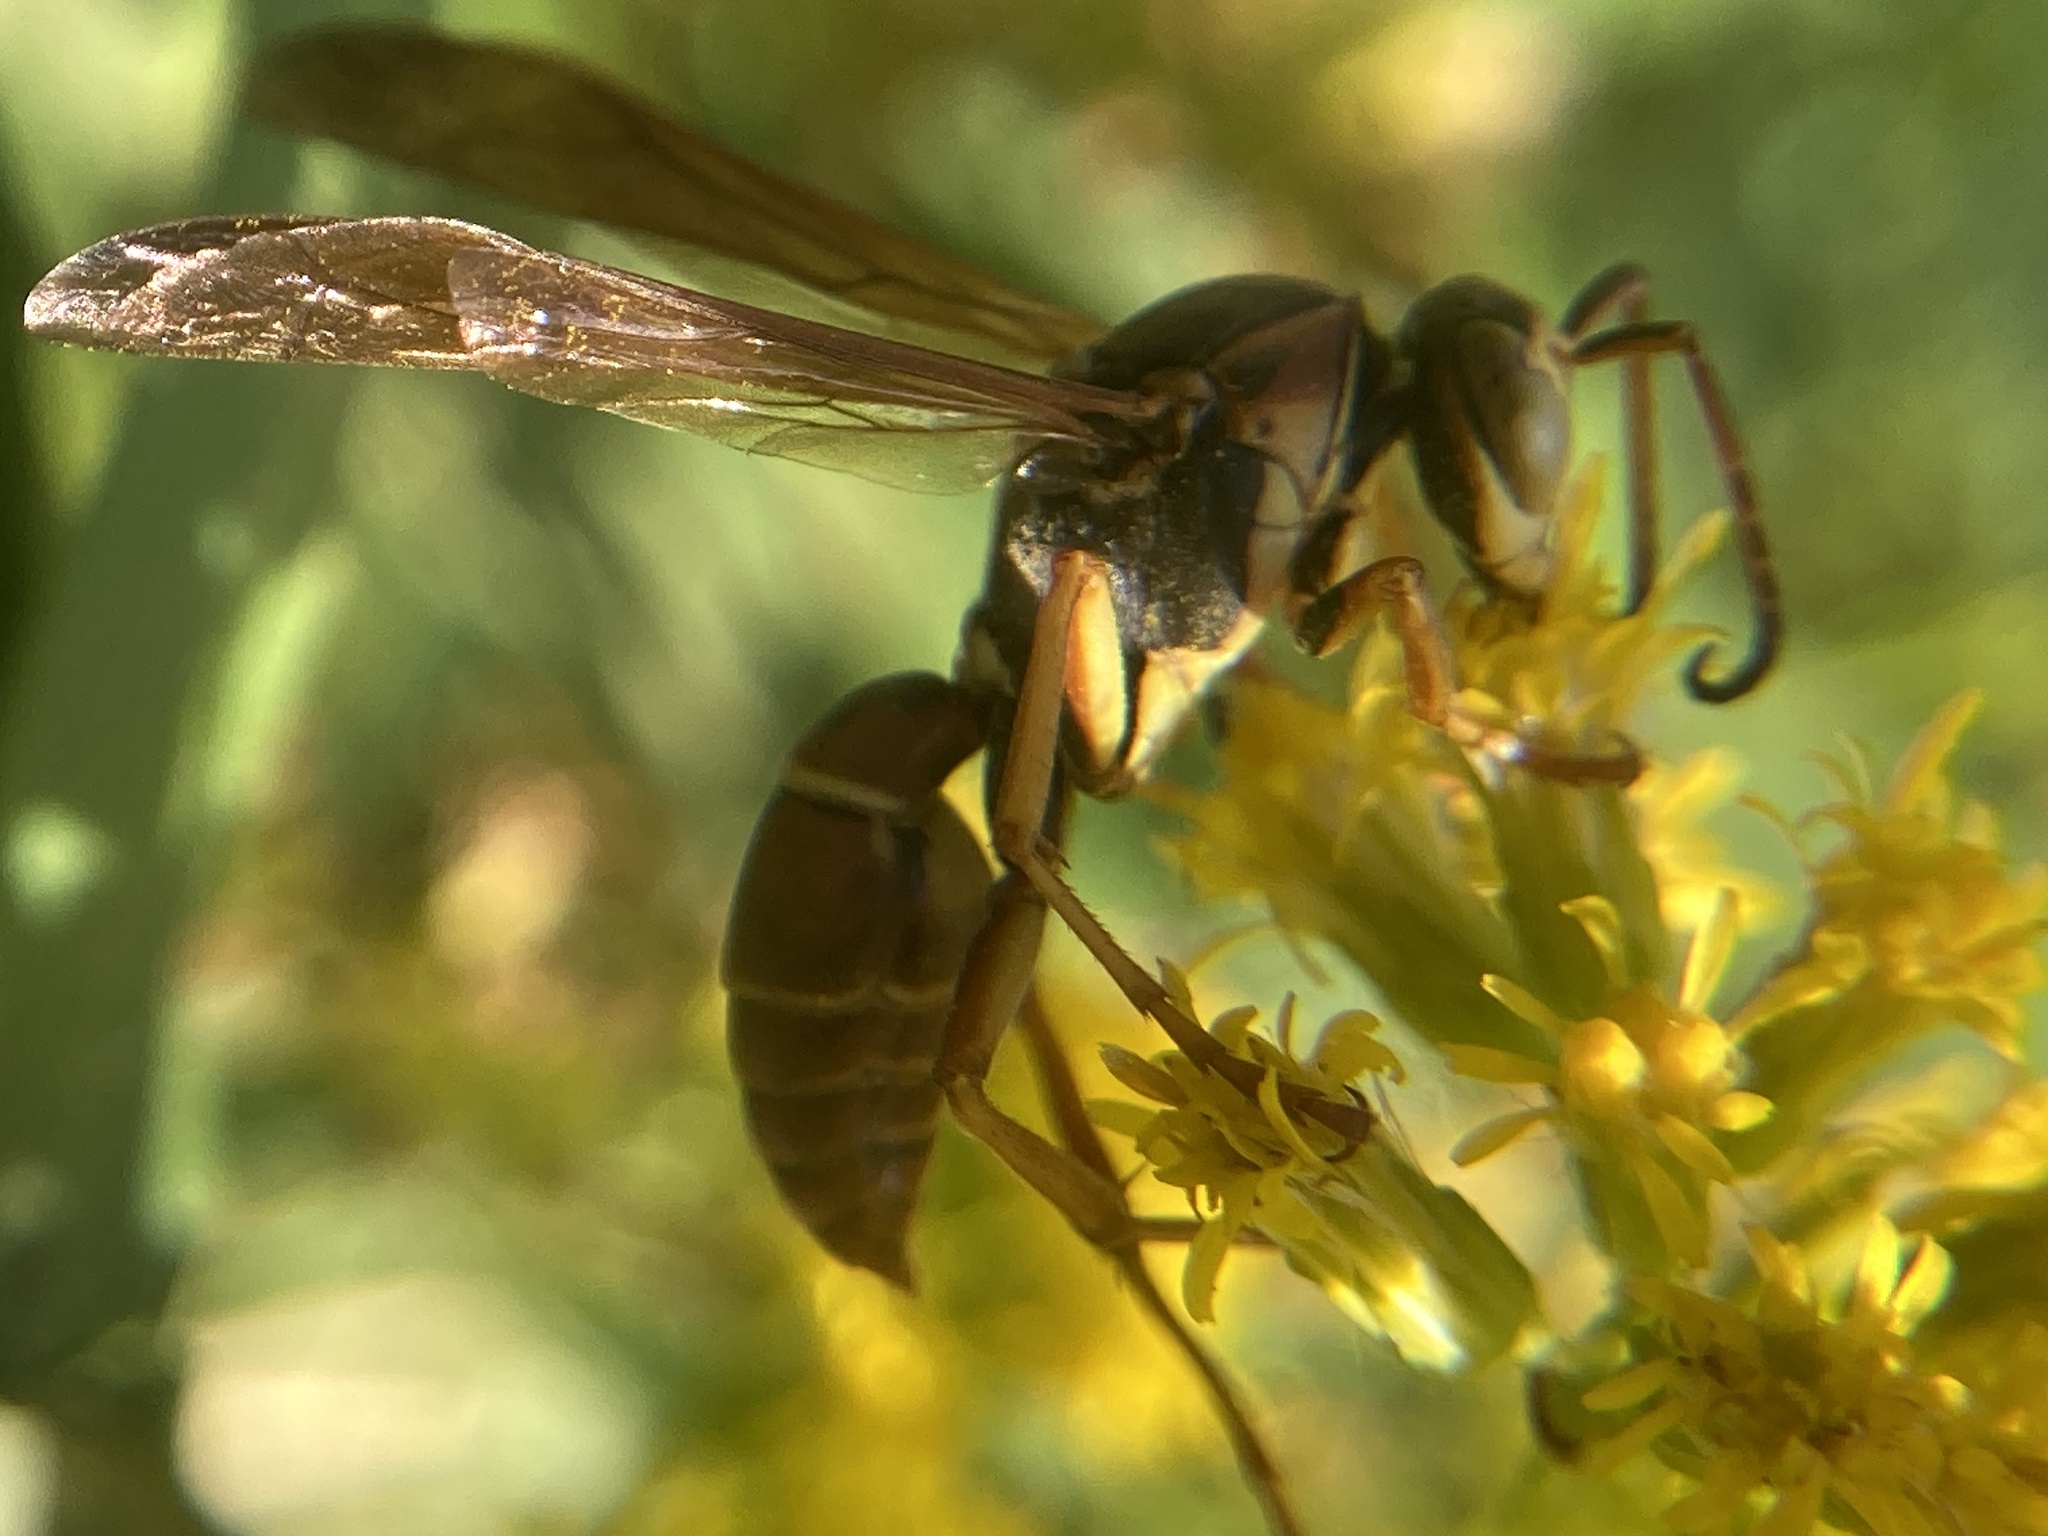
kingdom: Animalia
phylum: Arthropoda
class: Insecta
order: Hymenoptera
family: Eumenidae
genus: Polistes
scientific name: Polistes fuscatus
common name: Dark paper wasp
